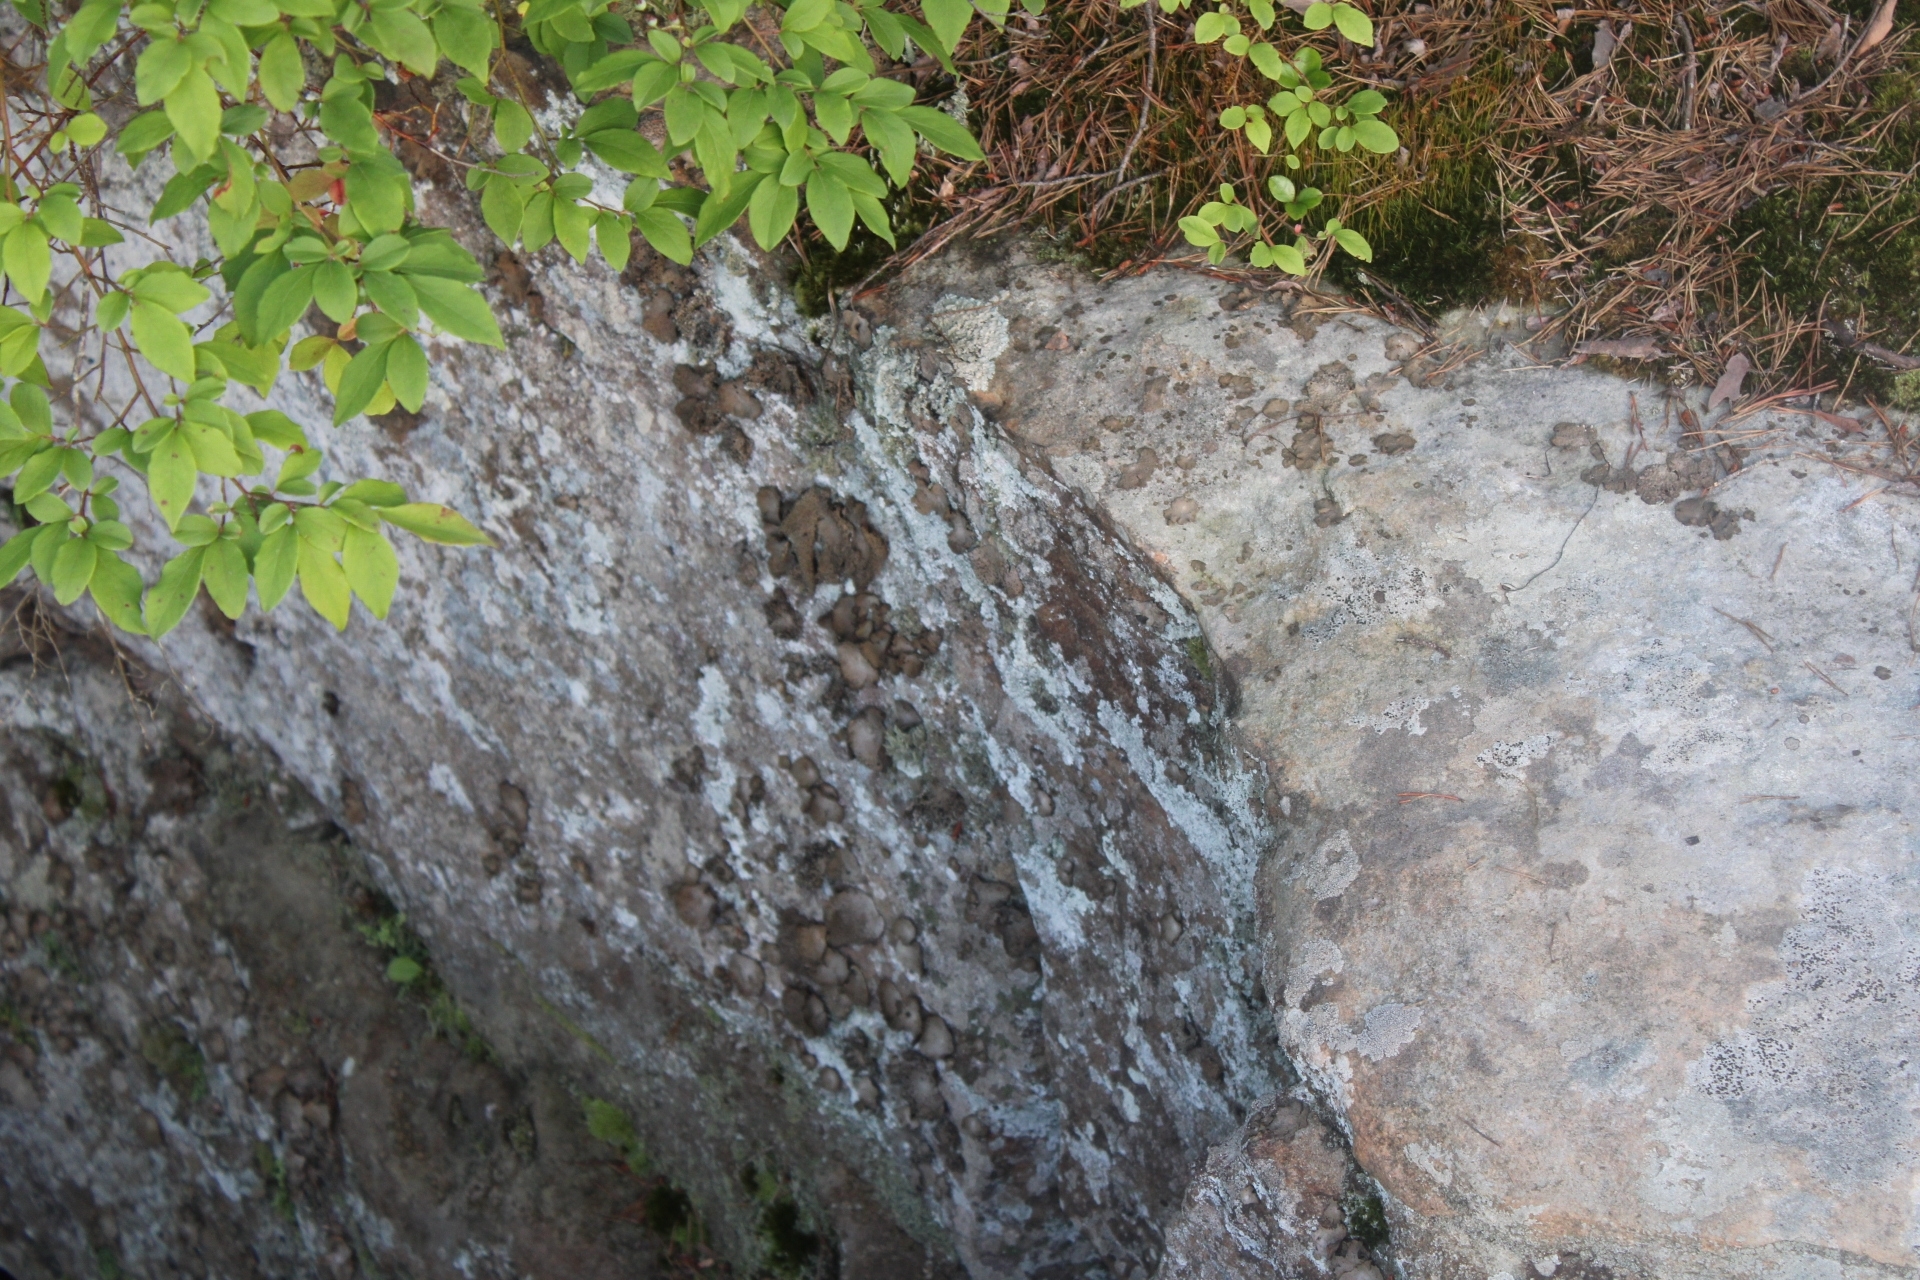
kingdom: Fungi
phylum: Ascomycota
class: Lecanoromycetes
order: Umbilicariales
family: Umbilicariaceae
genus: Lasallia
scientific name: Lasallia papulosa
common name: Common toadskin lichen
